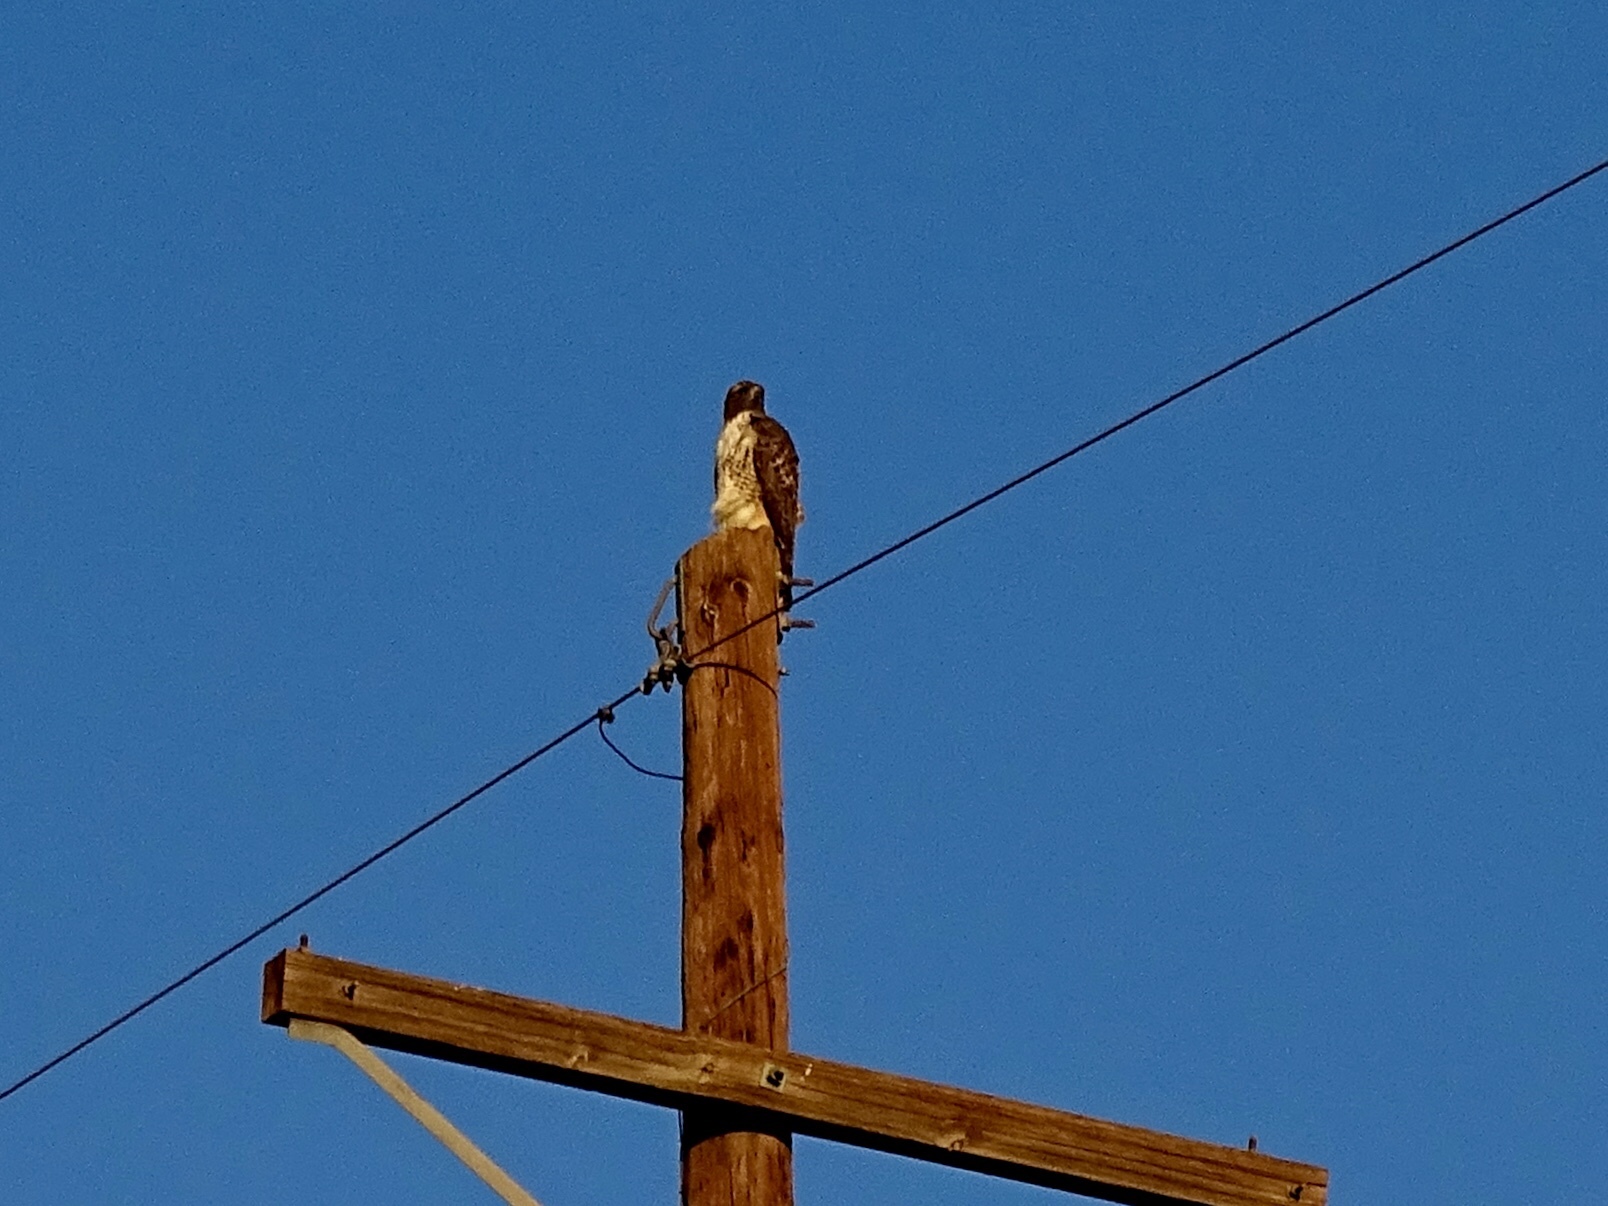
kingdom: Animalia
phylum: Chordata
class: Aves
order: Accipitriformes
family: Accipitridae
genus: Buteo
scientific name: Buteo jamaicensis
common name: Red-tailed hawk
